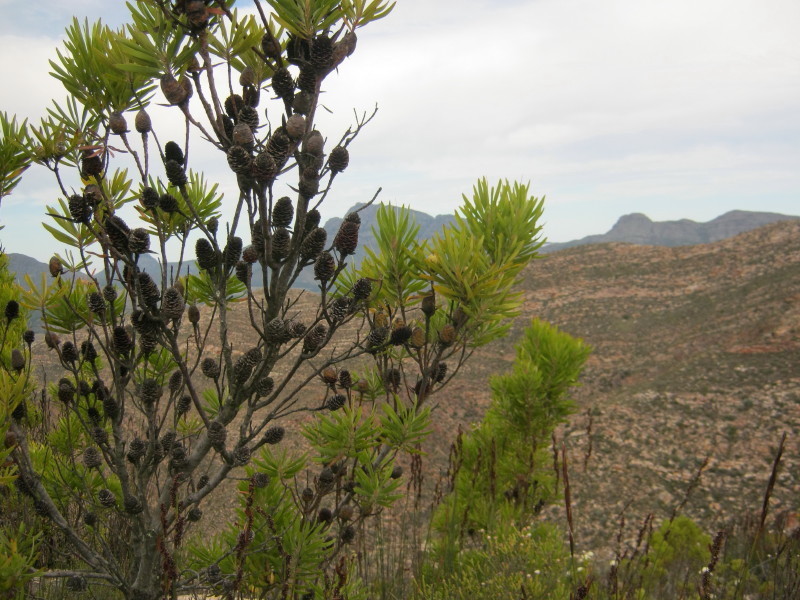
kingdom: Plantae
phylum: Tracheophyta
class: Magnoliopsida
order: Proteales
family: Proteaceae
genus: Leucadendron
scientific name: Leucadendron eucalyptifolium
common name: Gum-leaved conebush
